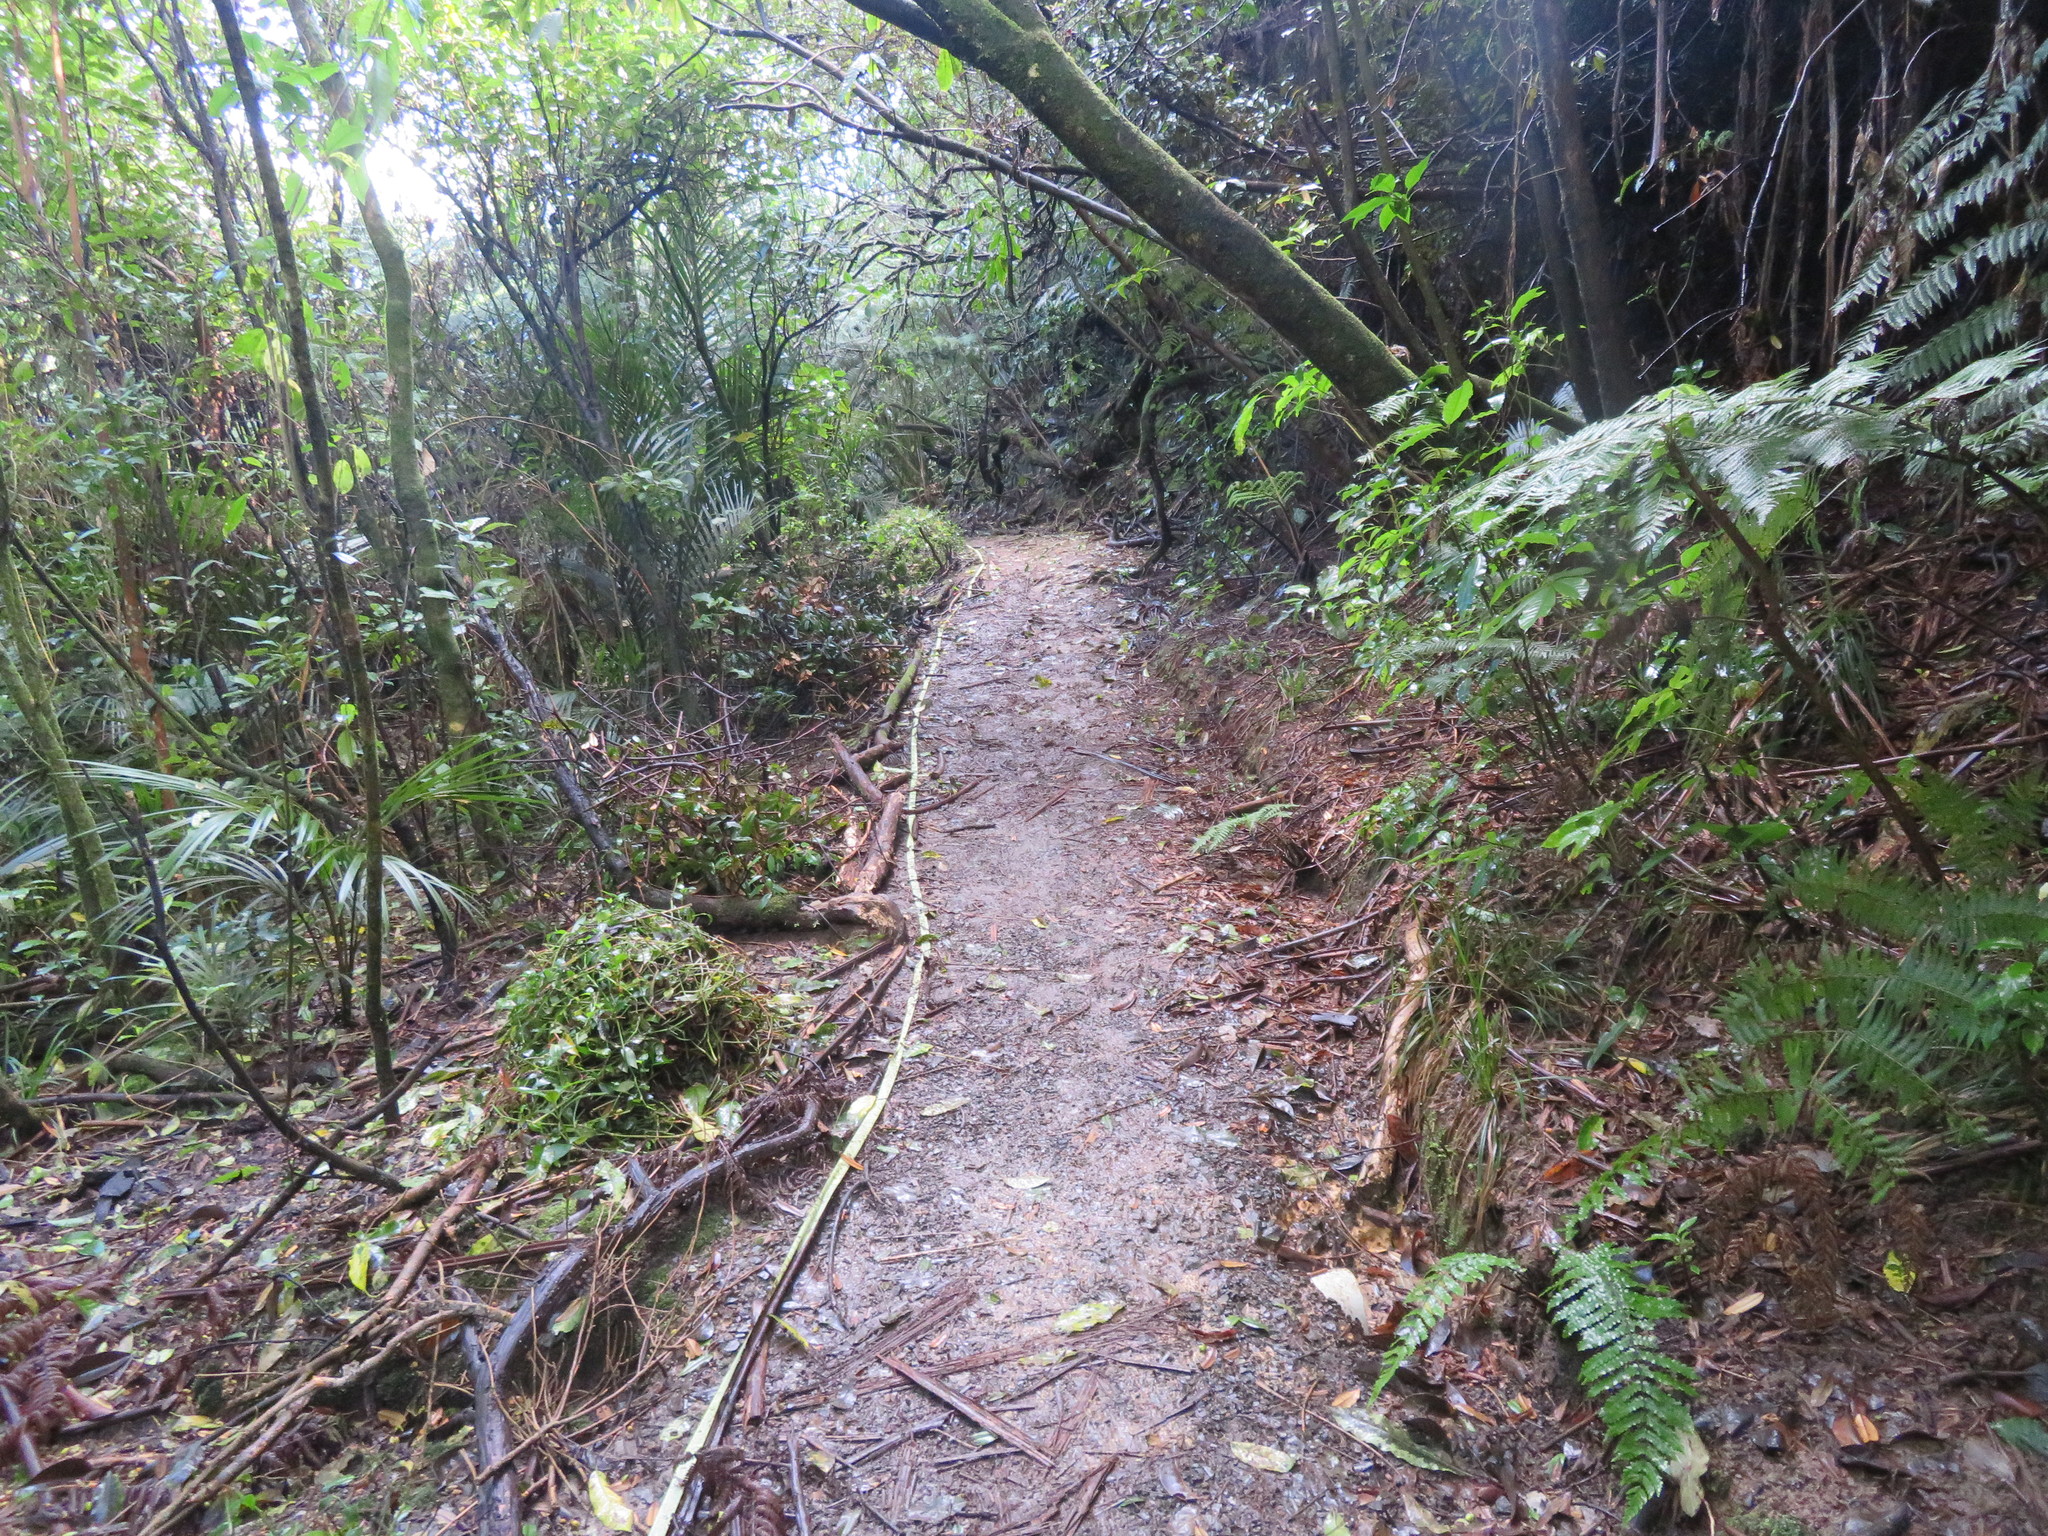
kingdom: Plantae
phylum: Tracheophyta
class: Liliopsida
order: Commelinales
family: Commelinaceae
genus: Tradescantia
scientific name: Tradescantia fluminensis
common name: Wandering-jew
